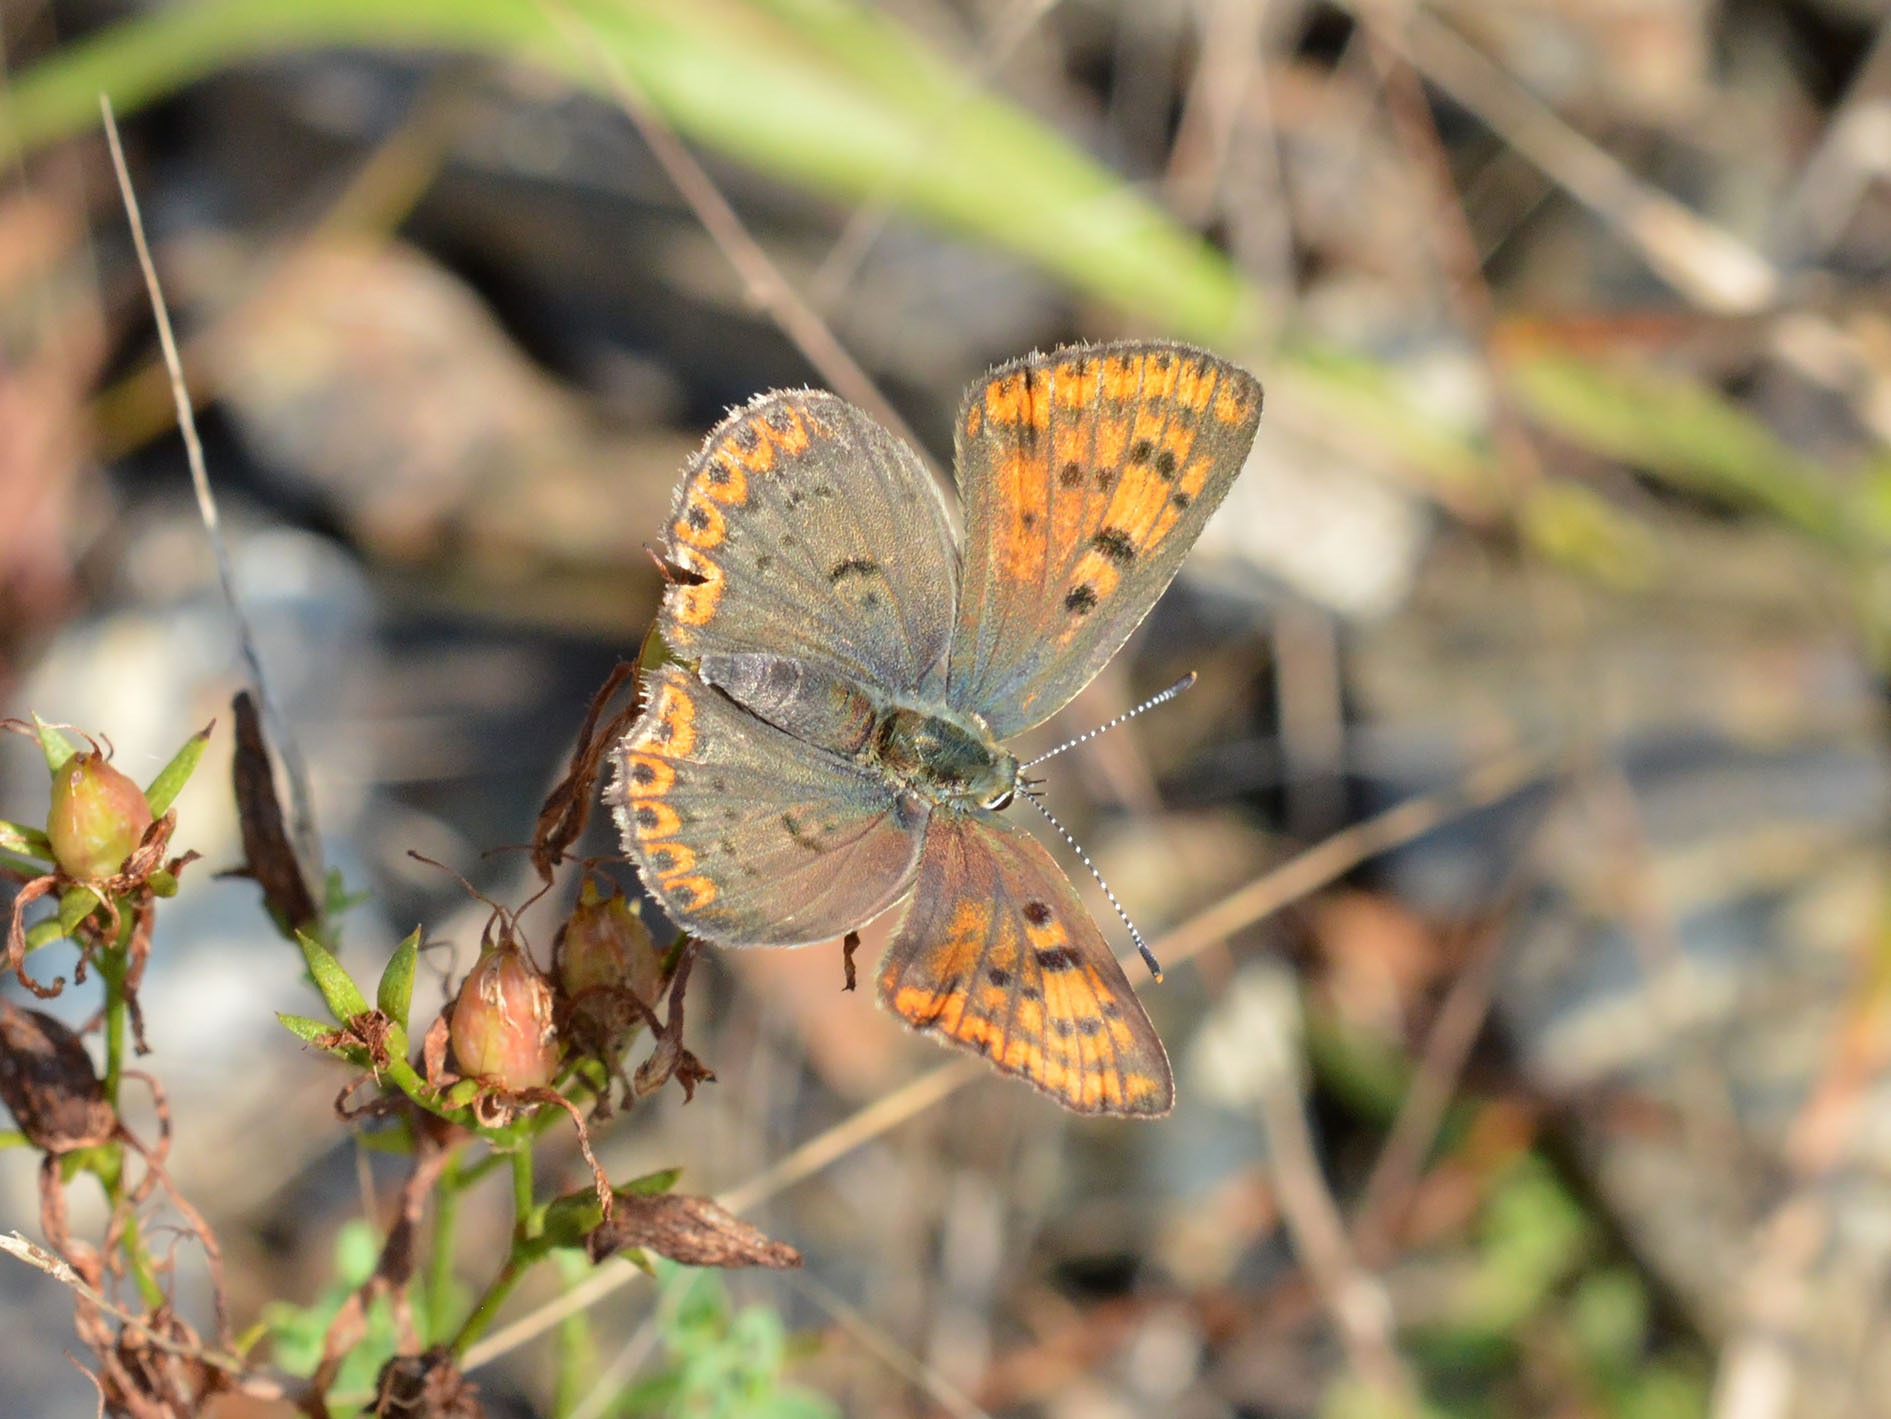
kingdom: Animalia
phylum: Arthropoda
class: Insecta
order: Lepidoptera
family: Lycaenidae
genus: Loweia
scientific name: Loweia tityrus
